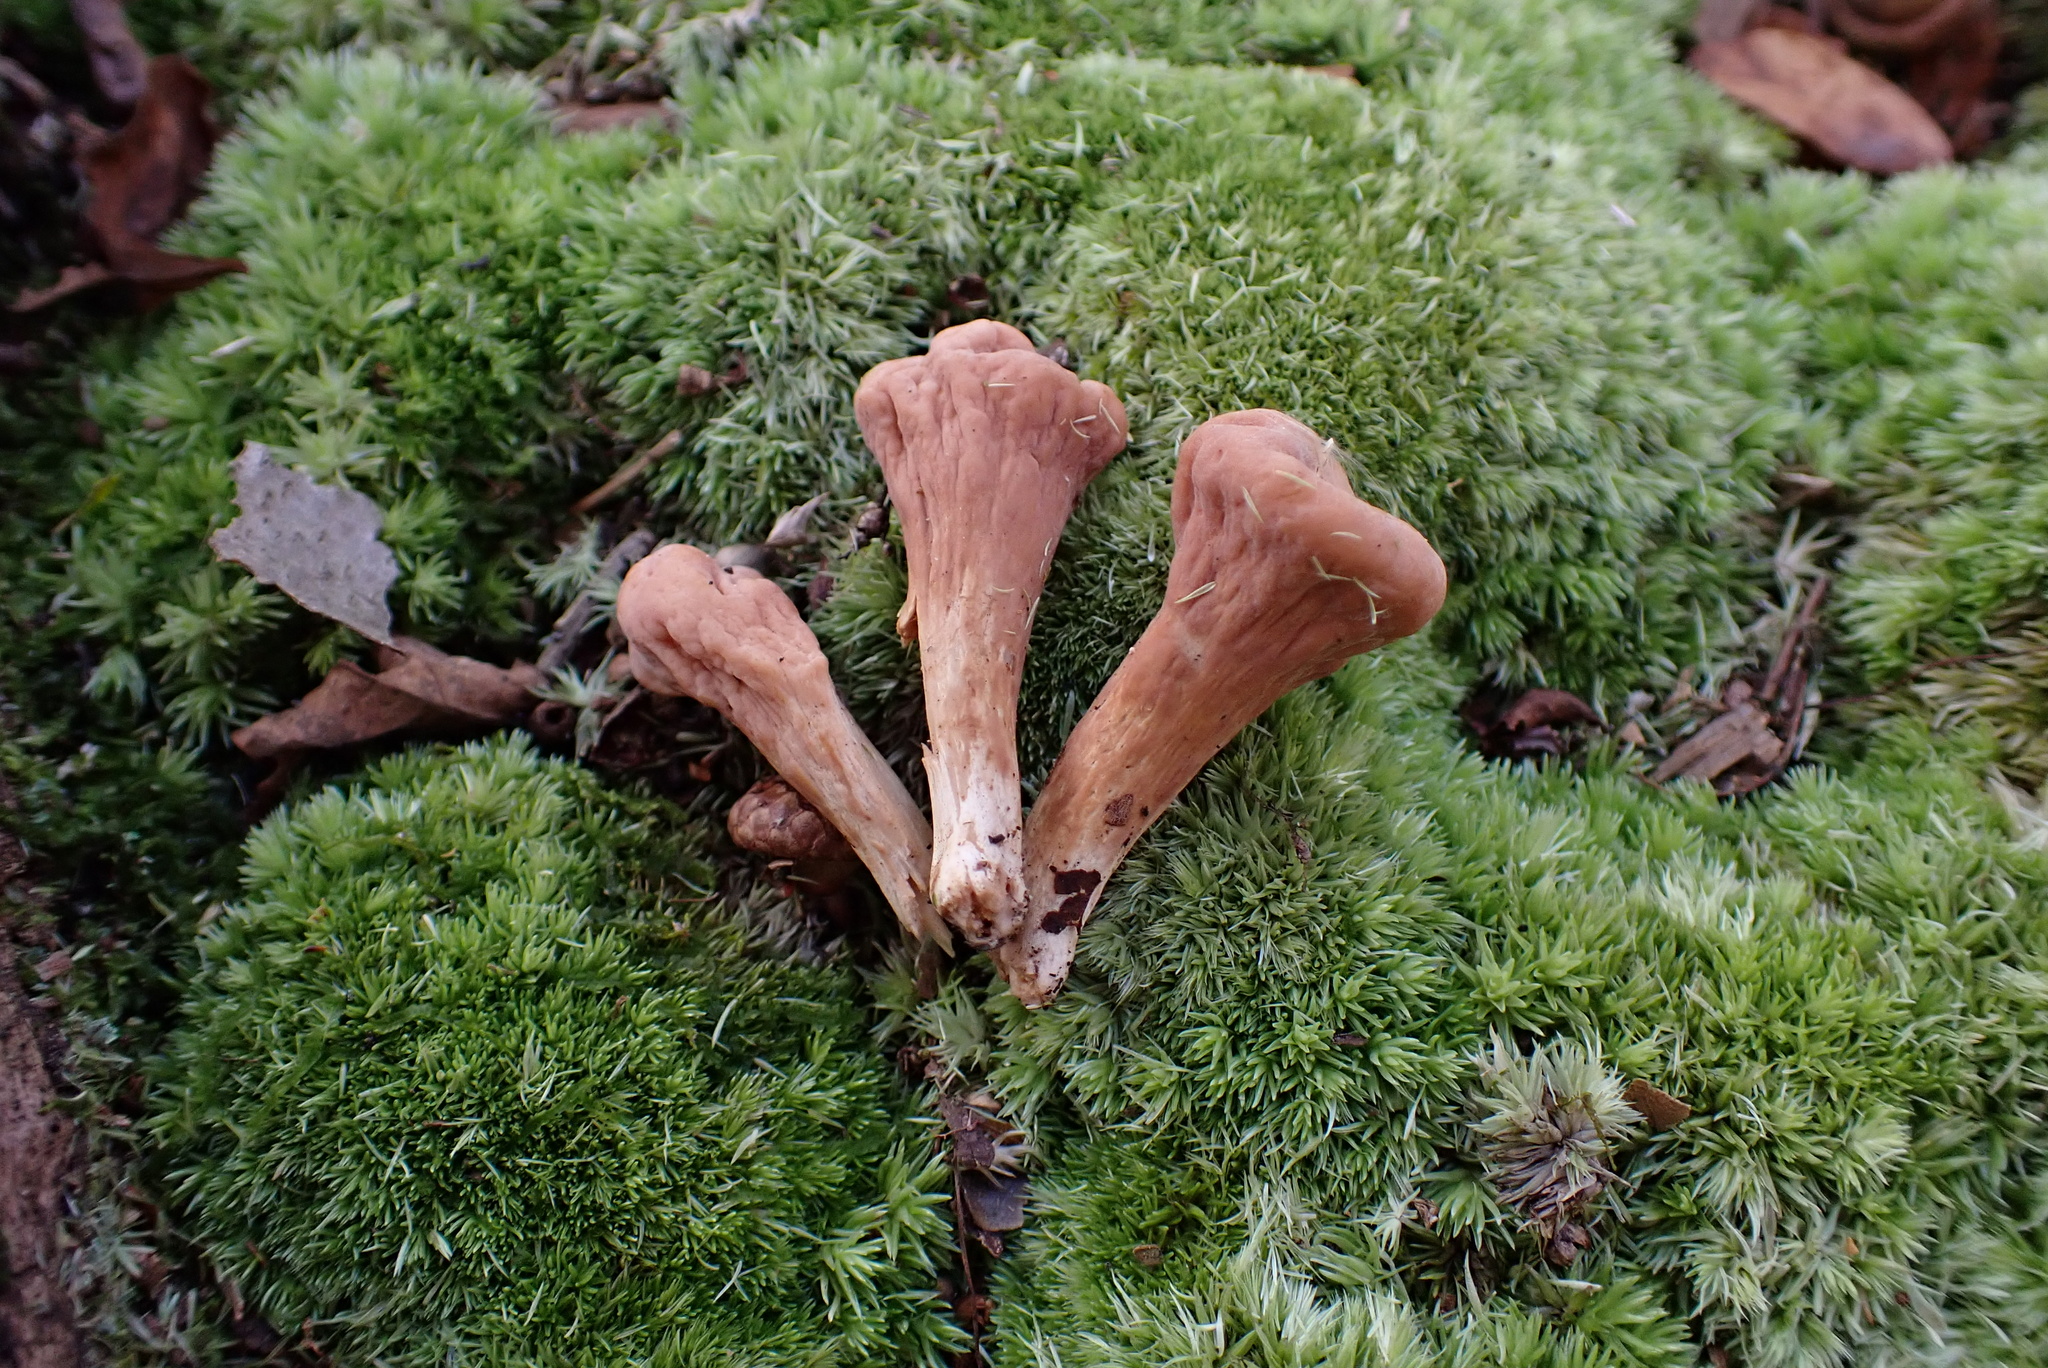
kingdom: Fungi
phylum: Basidiomycota
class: Agaricomycetes
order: Gomphales
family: Clavariadelphaceae
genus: Clavariadelphus
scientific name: Clavariadelphus truncatus
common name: Truncated club
